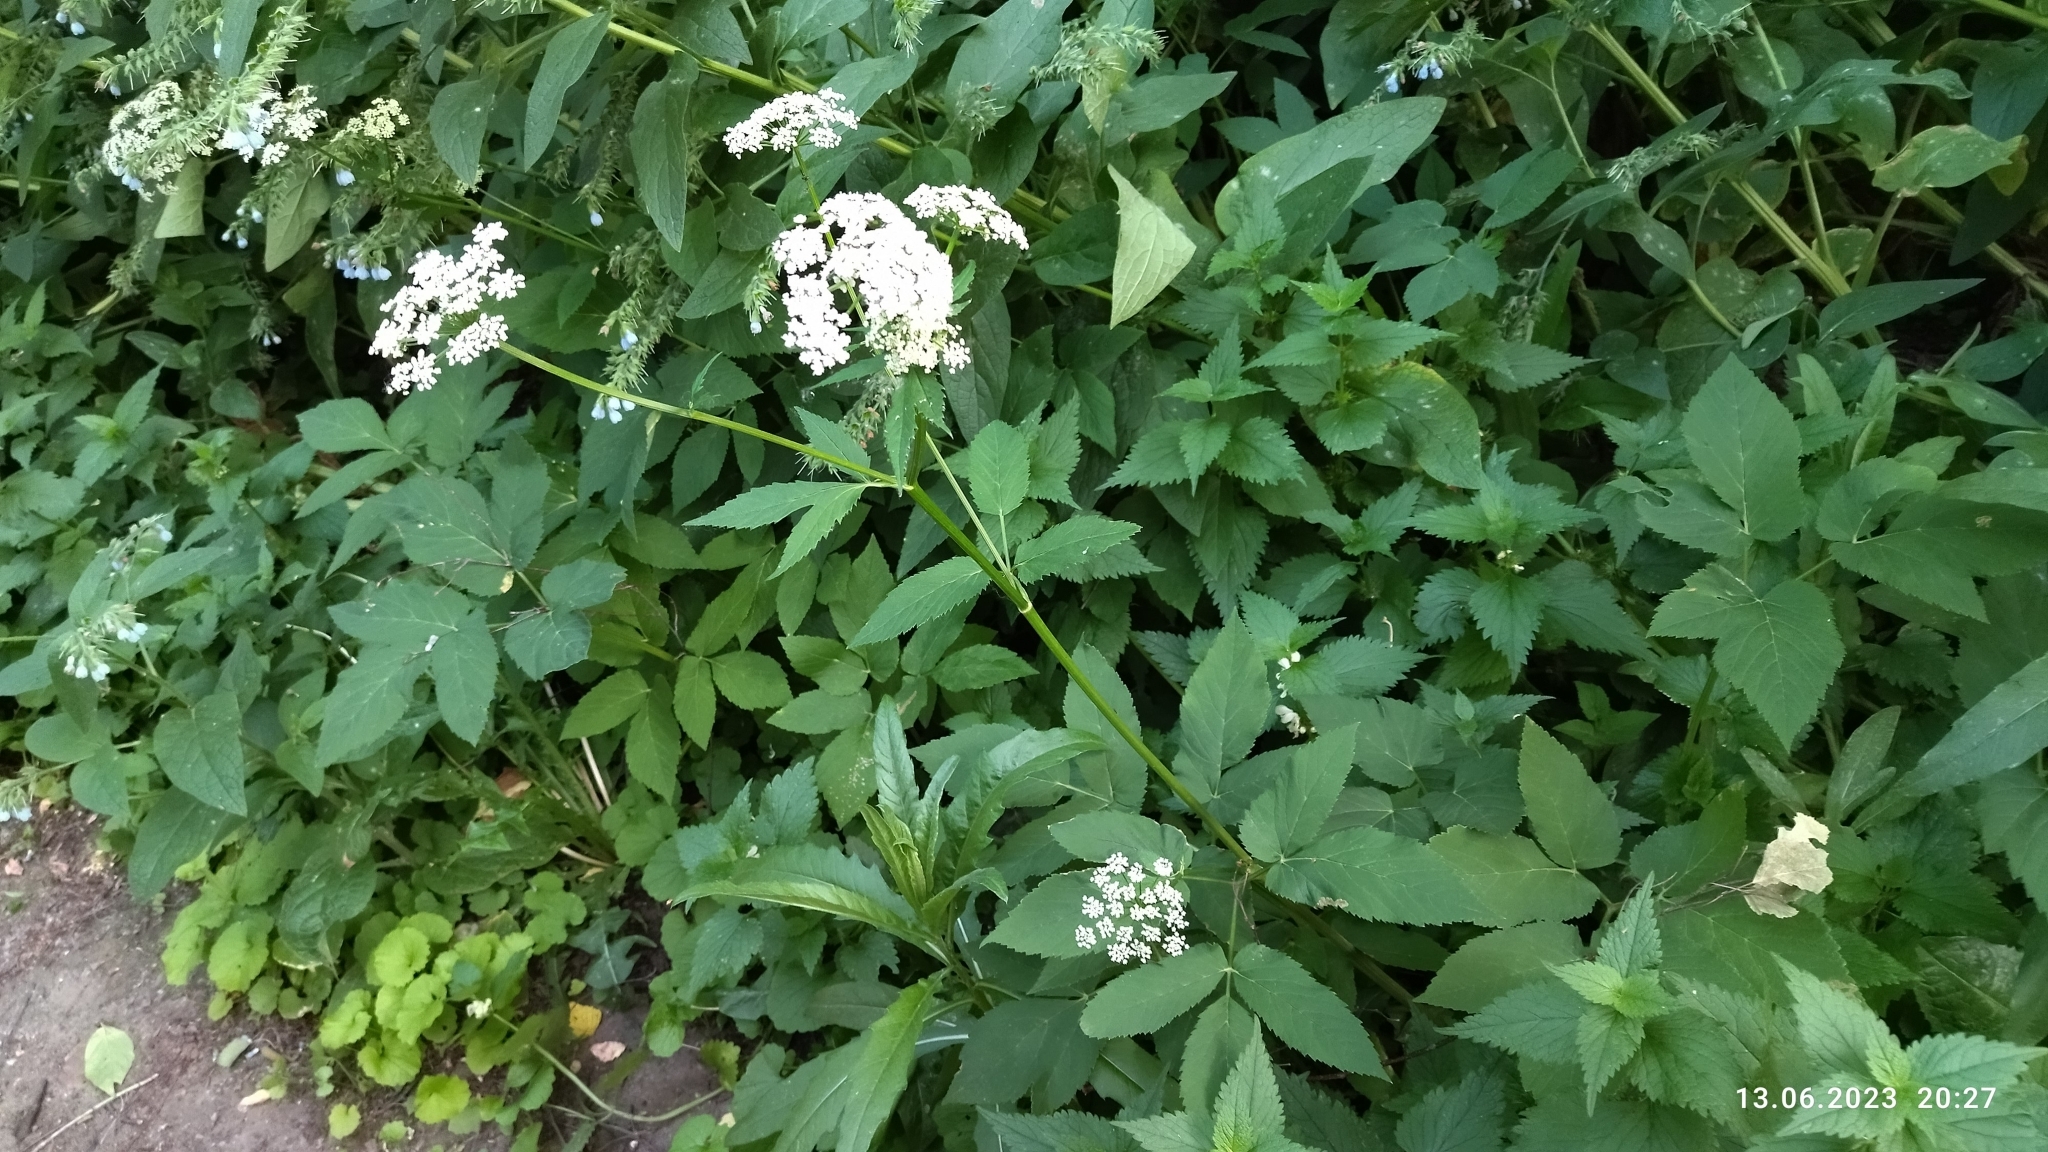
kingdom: Plantae
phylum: Tracheophyta
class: Magnoliopsida
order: Apiales
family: Apiaceae
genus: Aegopodium
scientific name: Aegopodium podagraria
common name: Ground-elder
